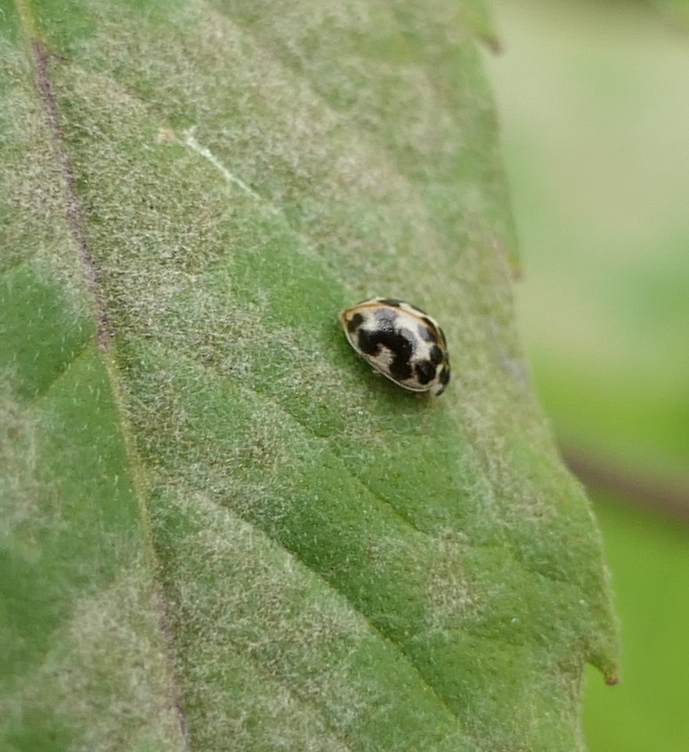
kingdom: Animalia
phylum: Arthropoda
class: Insecta
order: Coleoptera
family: Coccinellidae
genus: Psyllobora
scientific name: Psyllobora vigintimaculata
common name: Ladybird beetle
